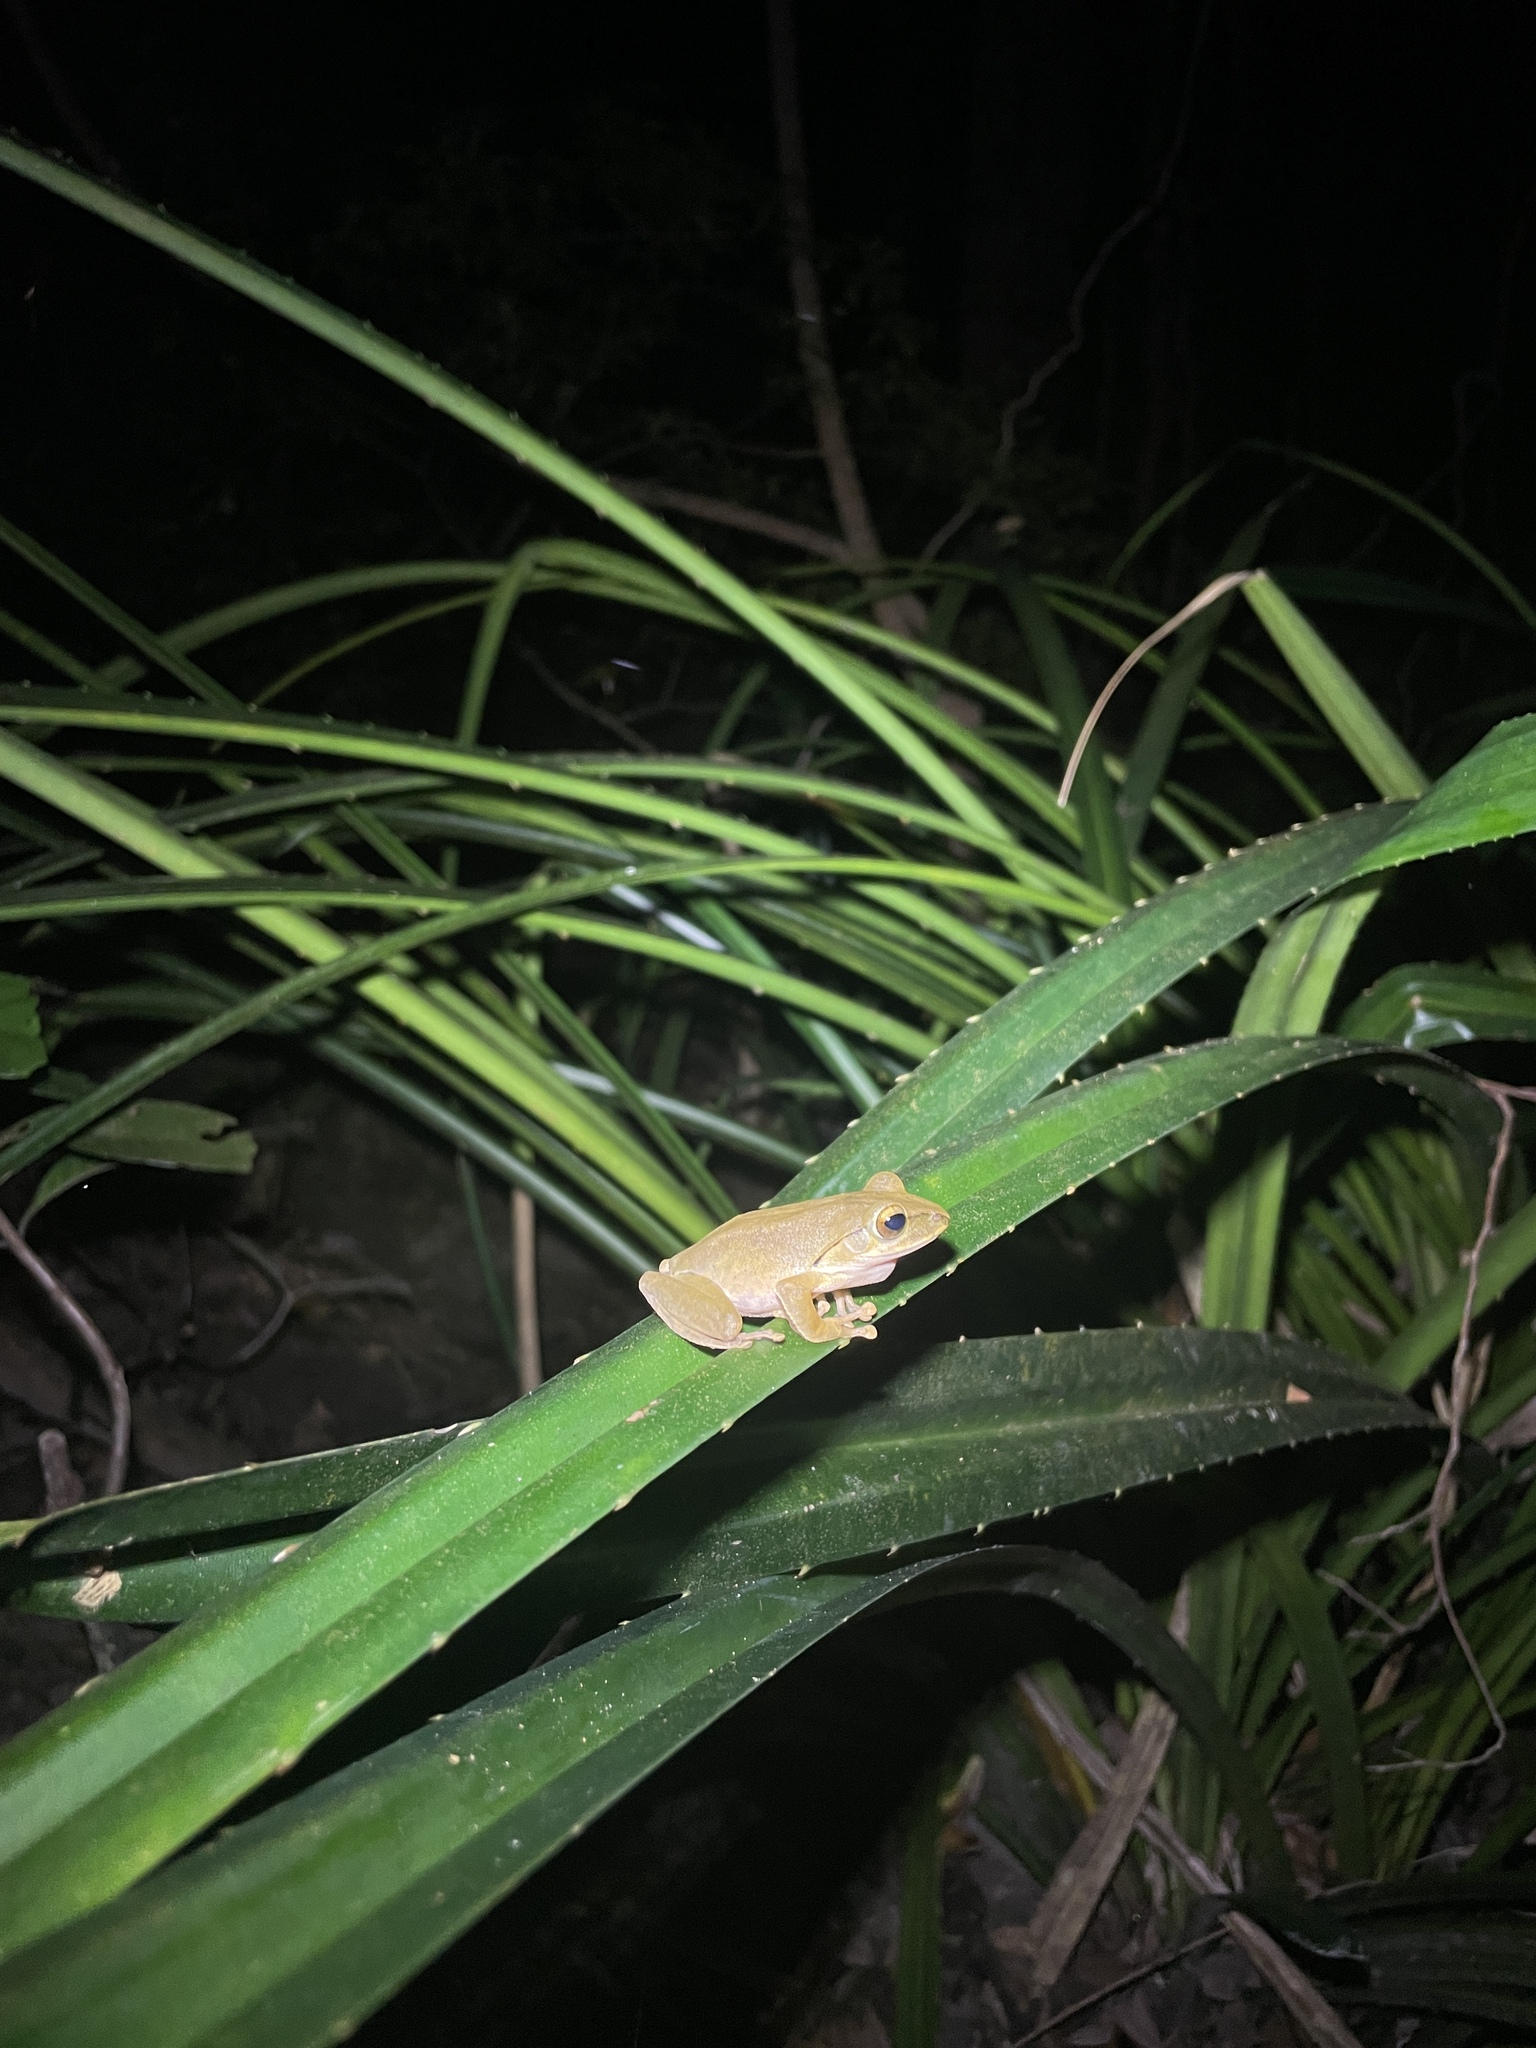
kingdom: Animalia
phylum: Chordata
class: Amphibia
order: Anura
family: Rhacophoridae
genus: Polypedates
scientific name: Polypedates megacephalus
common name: Hong kong whipping frog
